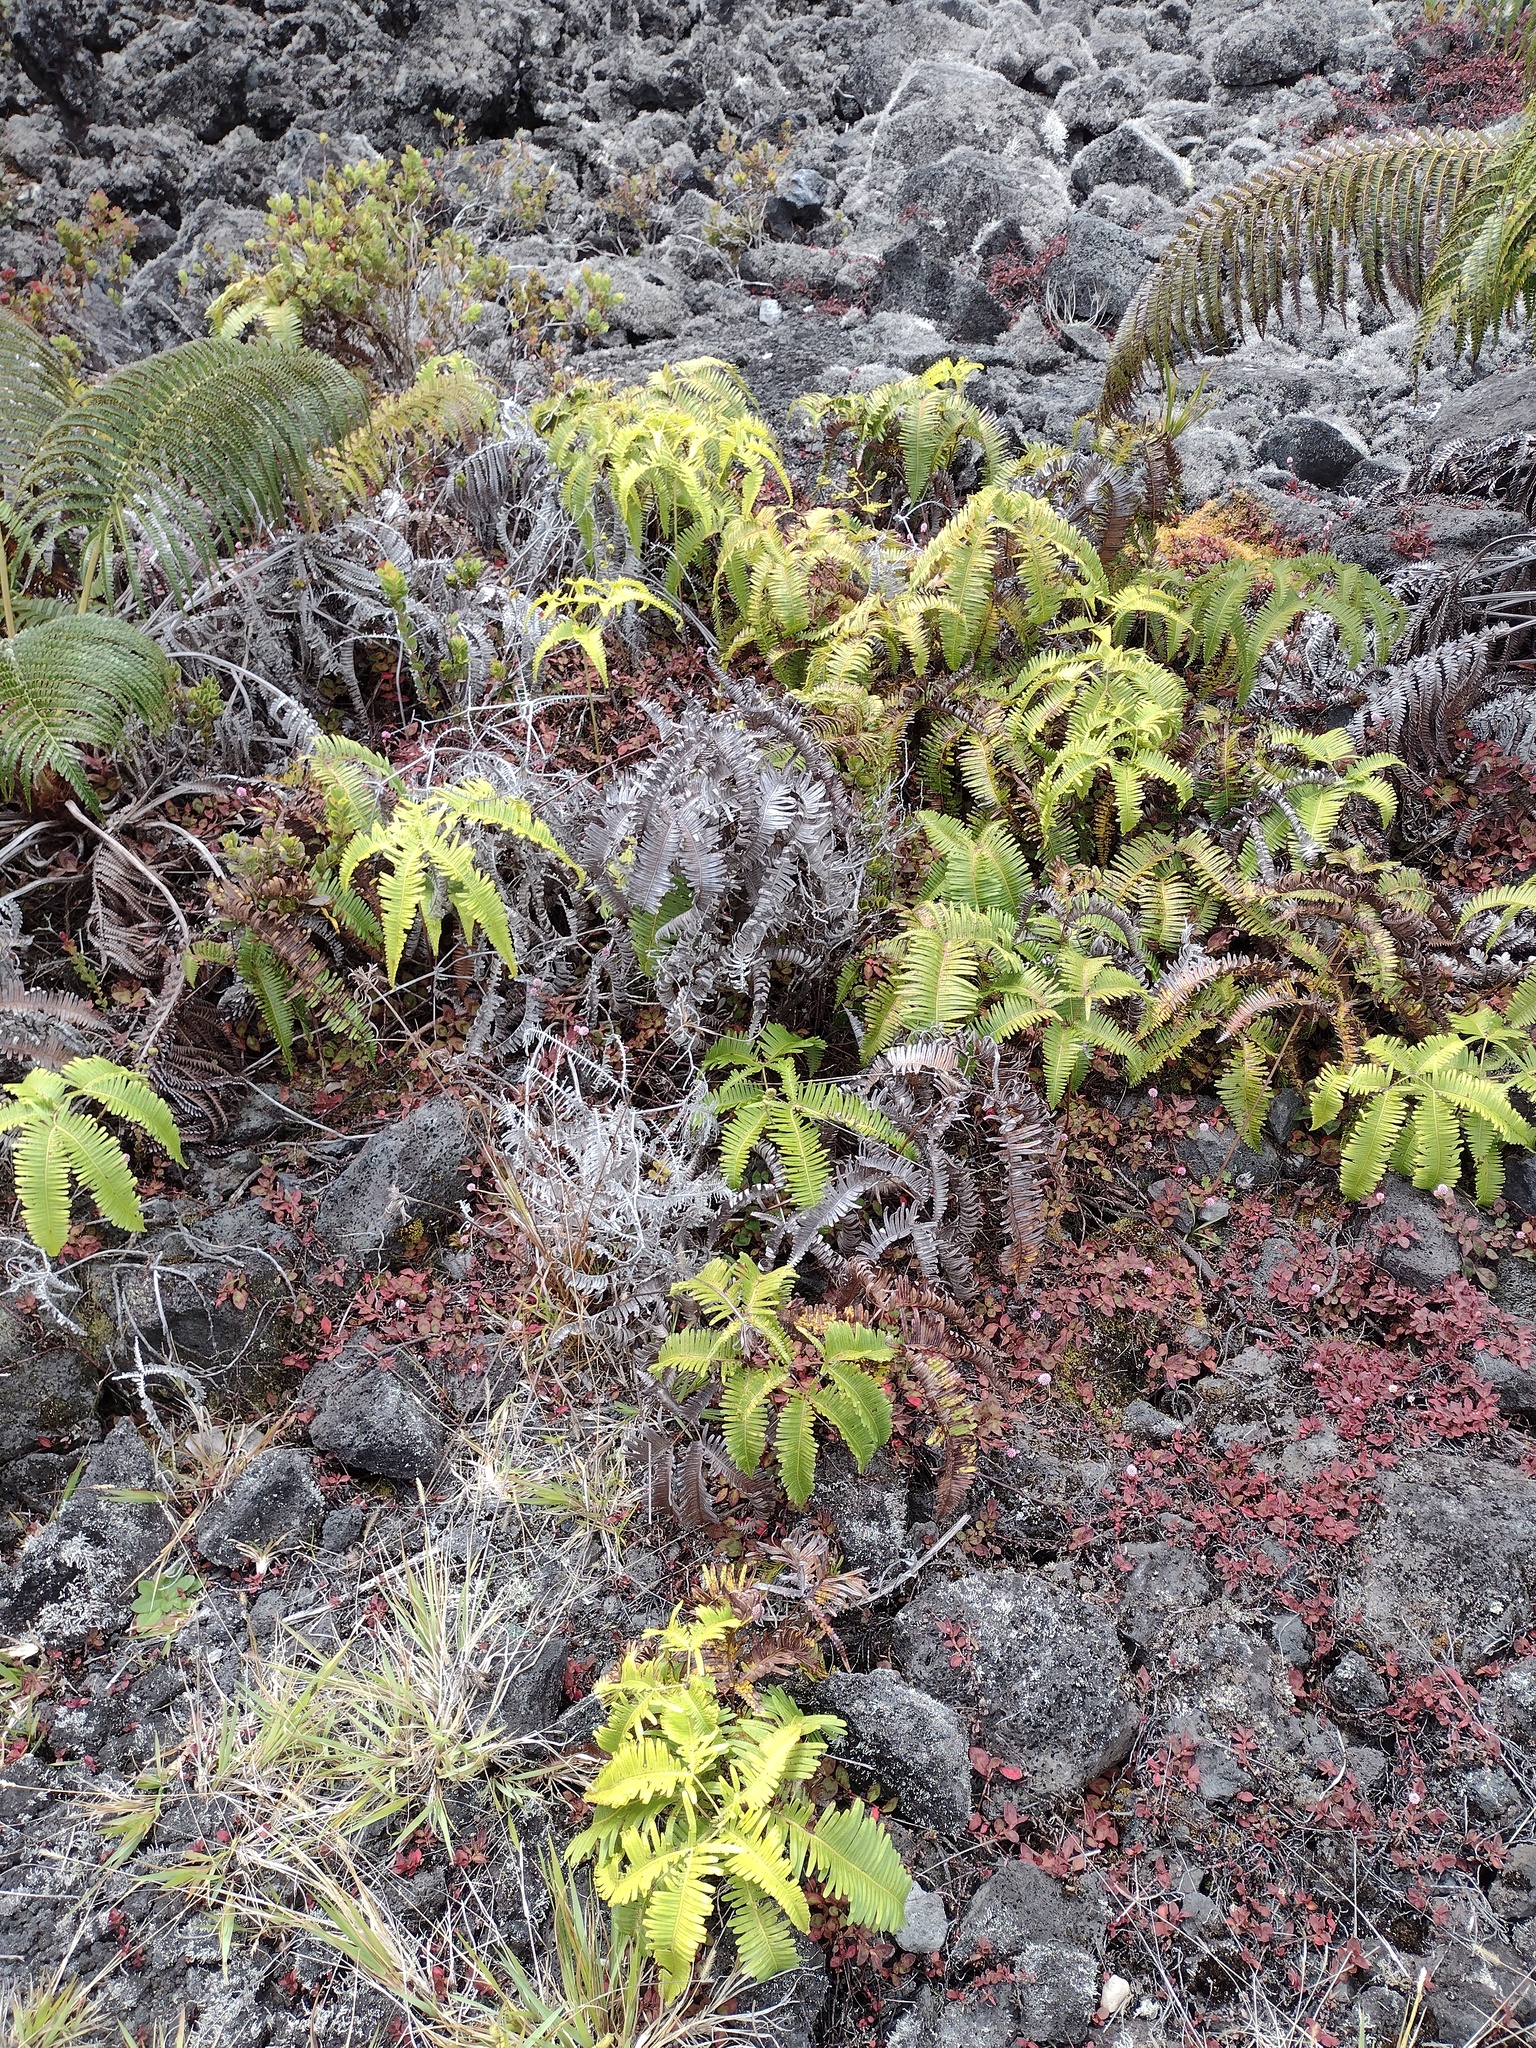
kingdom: Plantae
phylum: Tracheophyta
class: Polypodiopsida
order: Gleicheniales
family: Gleicheniaceae
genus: Dicranopteris
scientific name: Dicranopteris linearis
